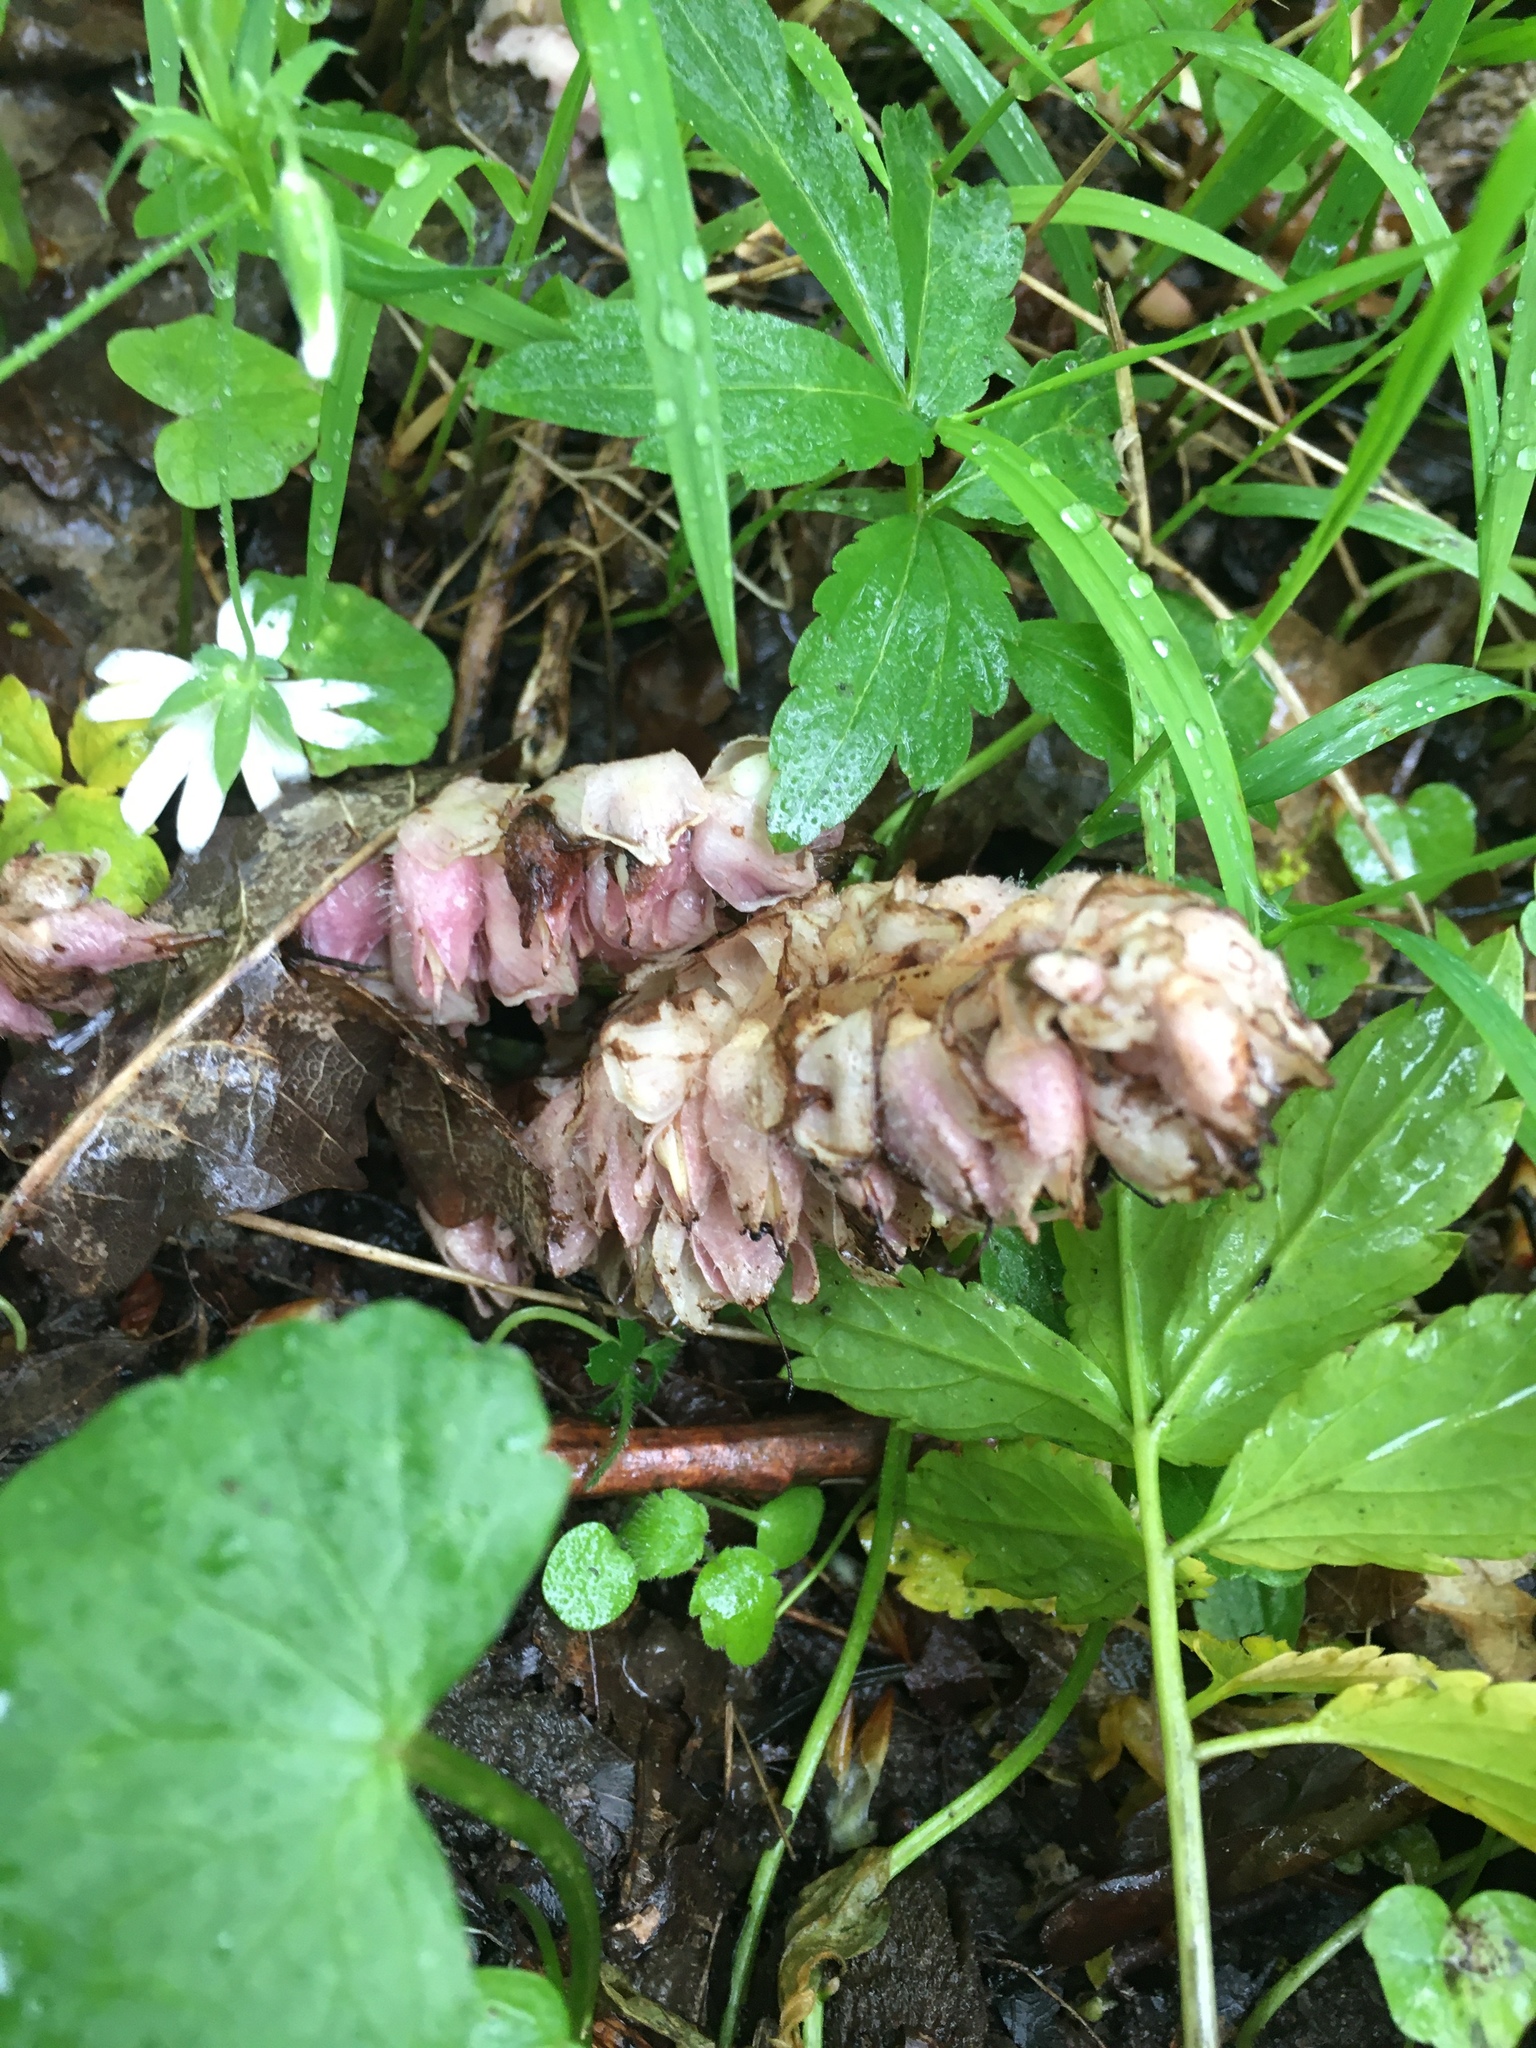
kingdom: Plantae
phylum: Tracheophyta
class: Magnoliopsida
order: Lamiales
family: Orobanchaceae
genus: Lathraea
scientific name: Lathraea squamaria
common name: Toothwort
